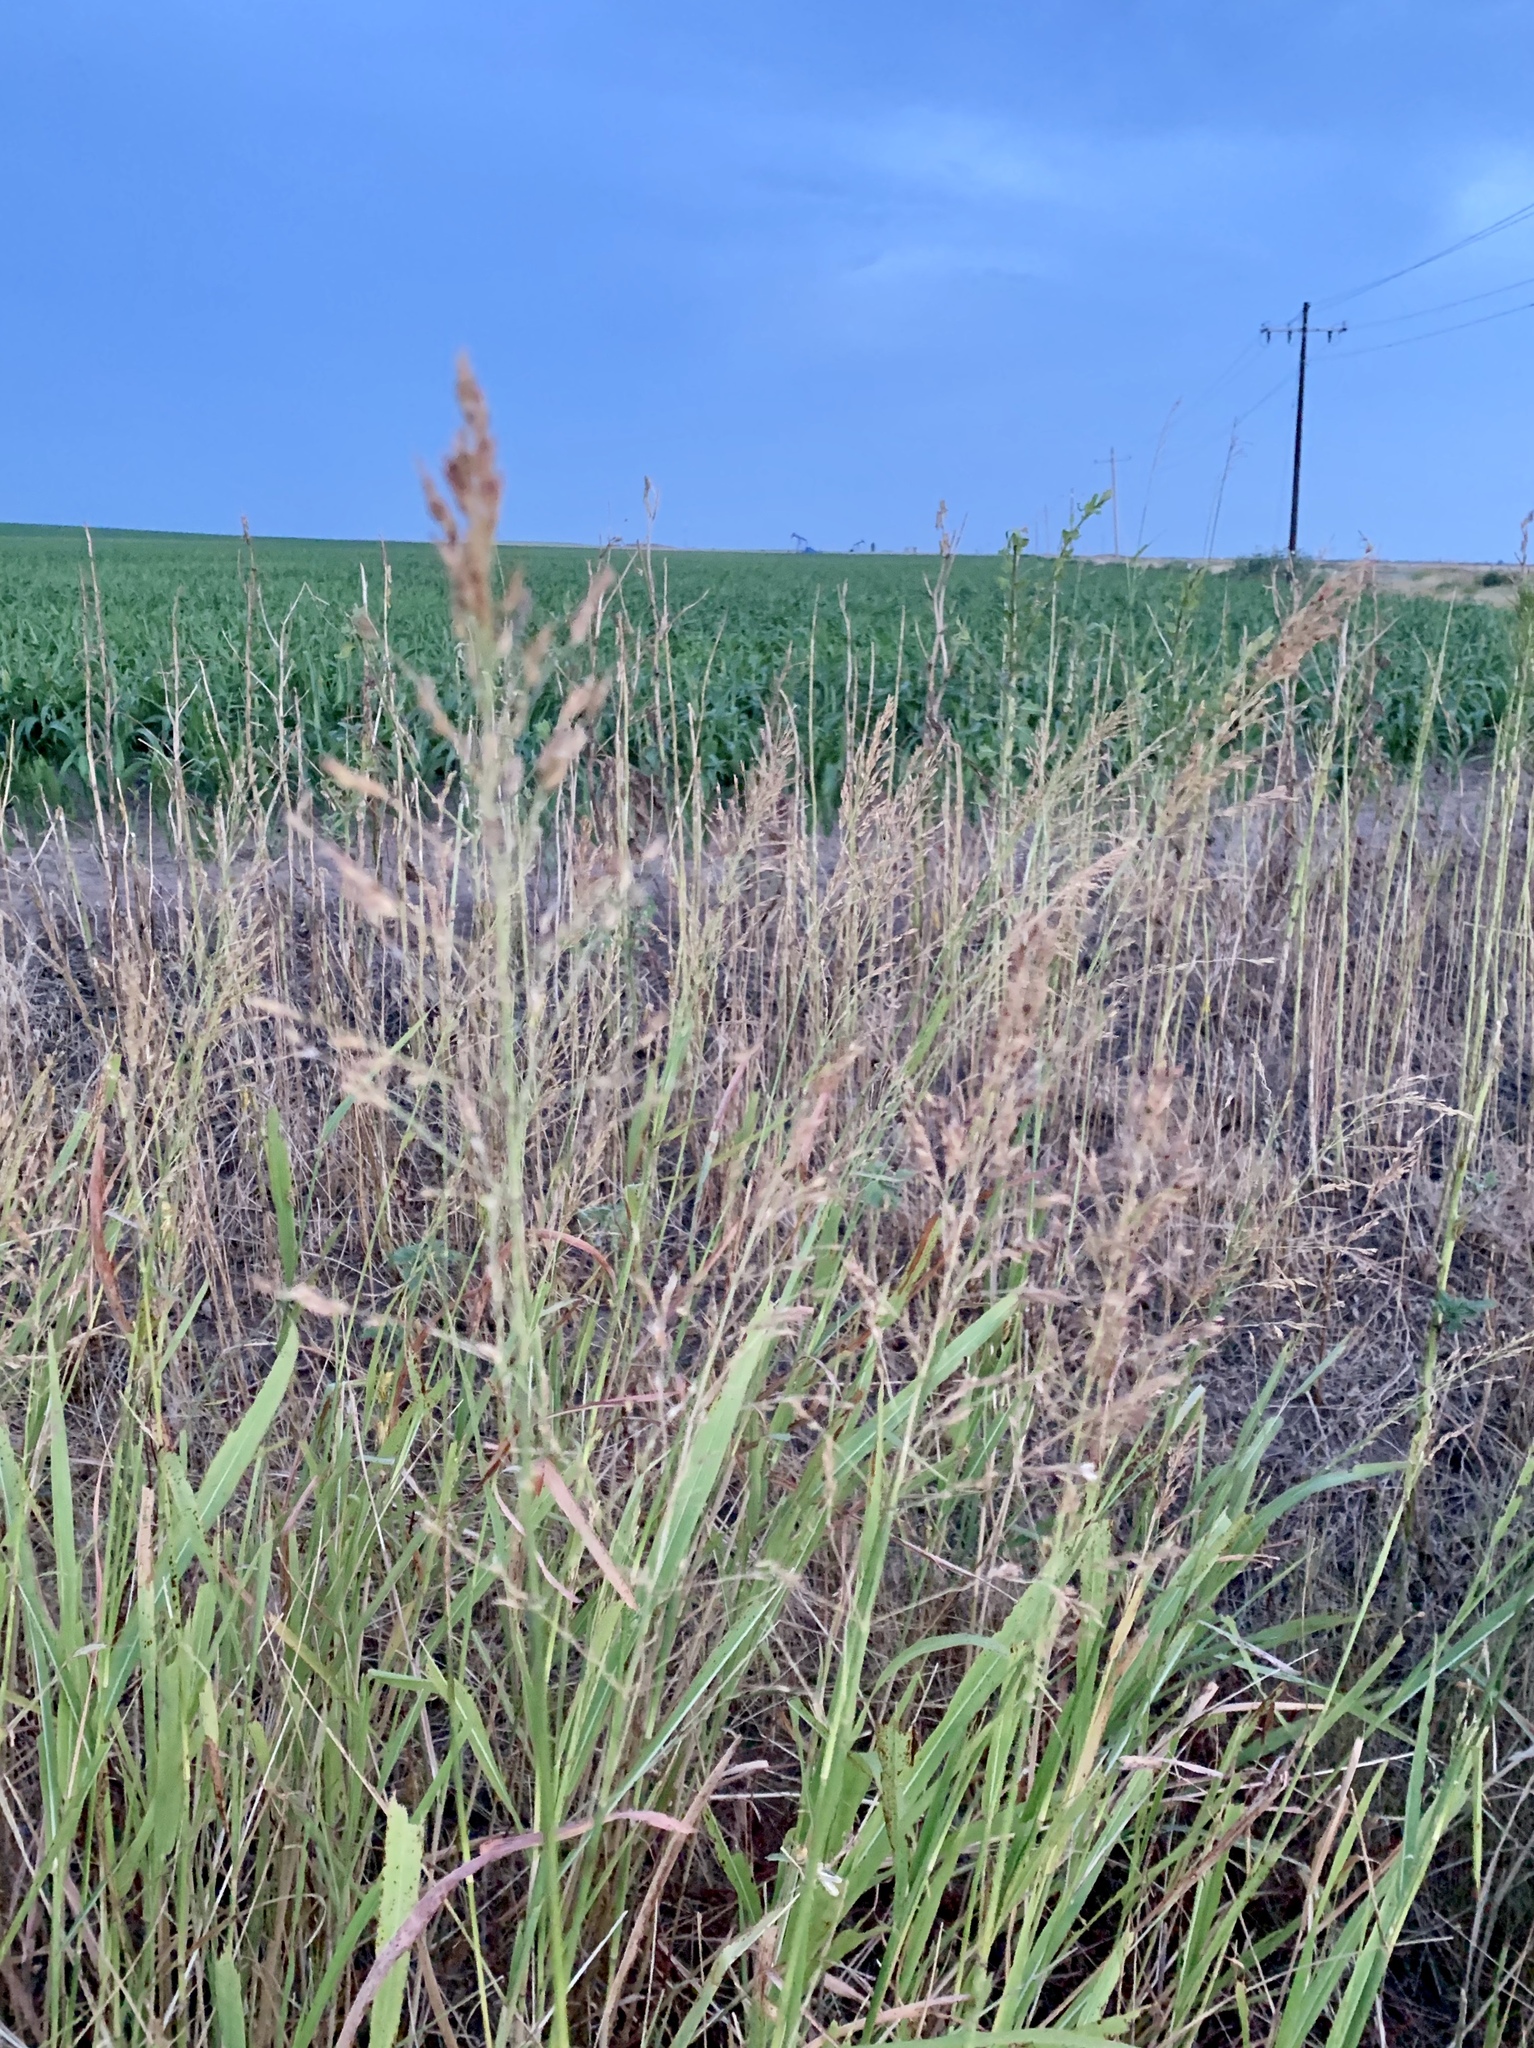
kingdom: Plantae
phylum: Tracheophyta
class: Liliopsida
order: Poales
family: Poaceae
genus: Sorghum
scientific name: Sorghum halepense
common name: Johnson-grass
